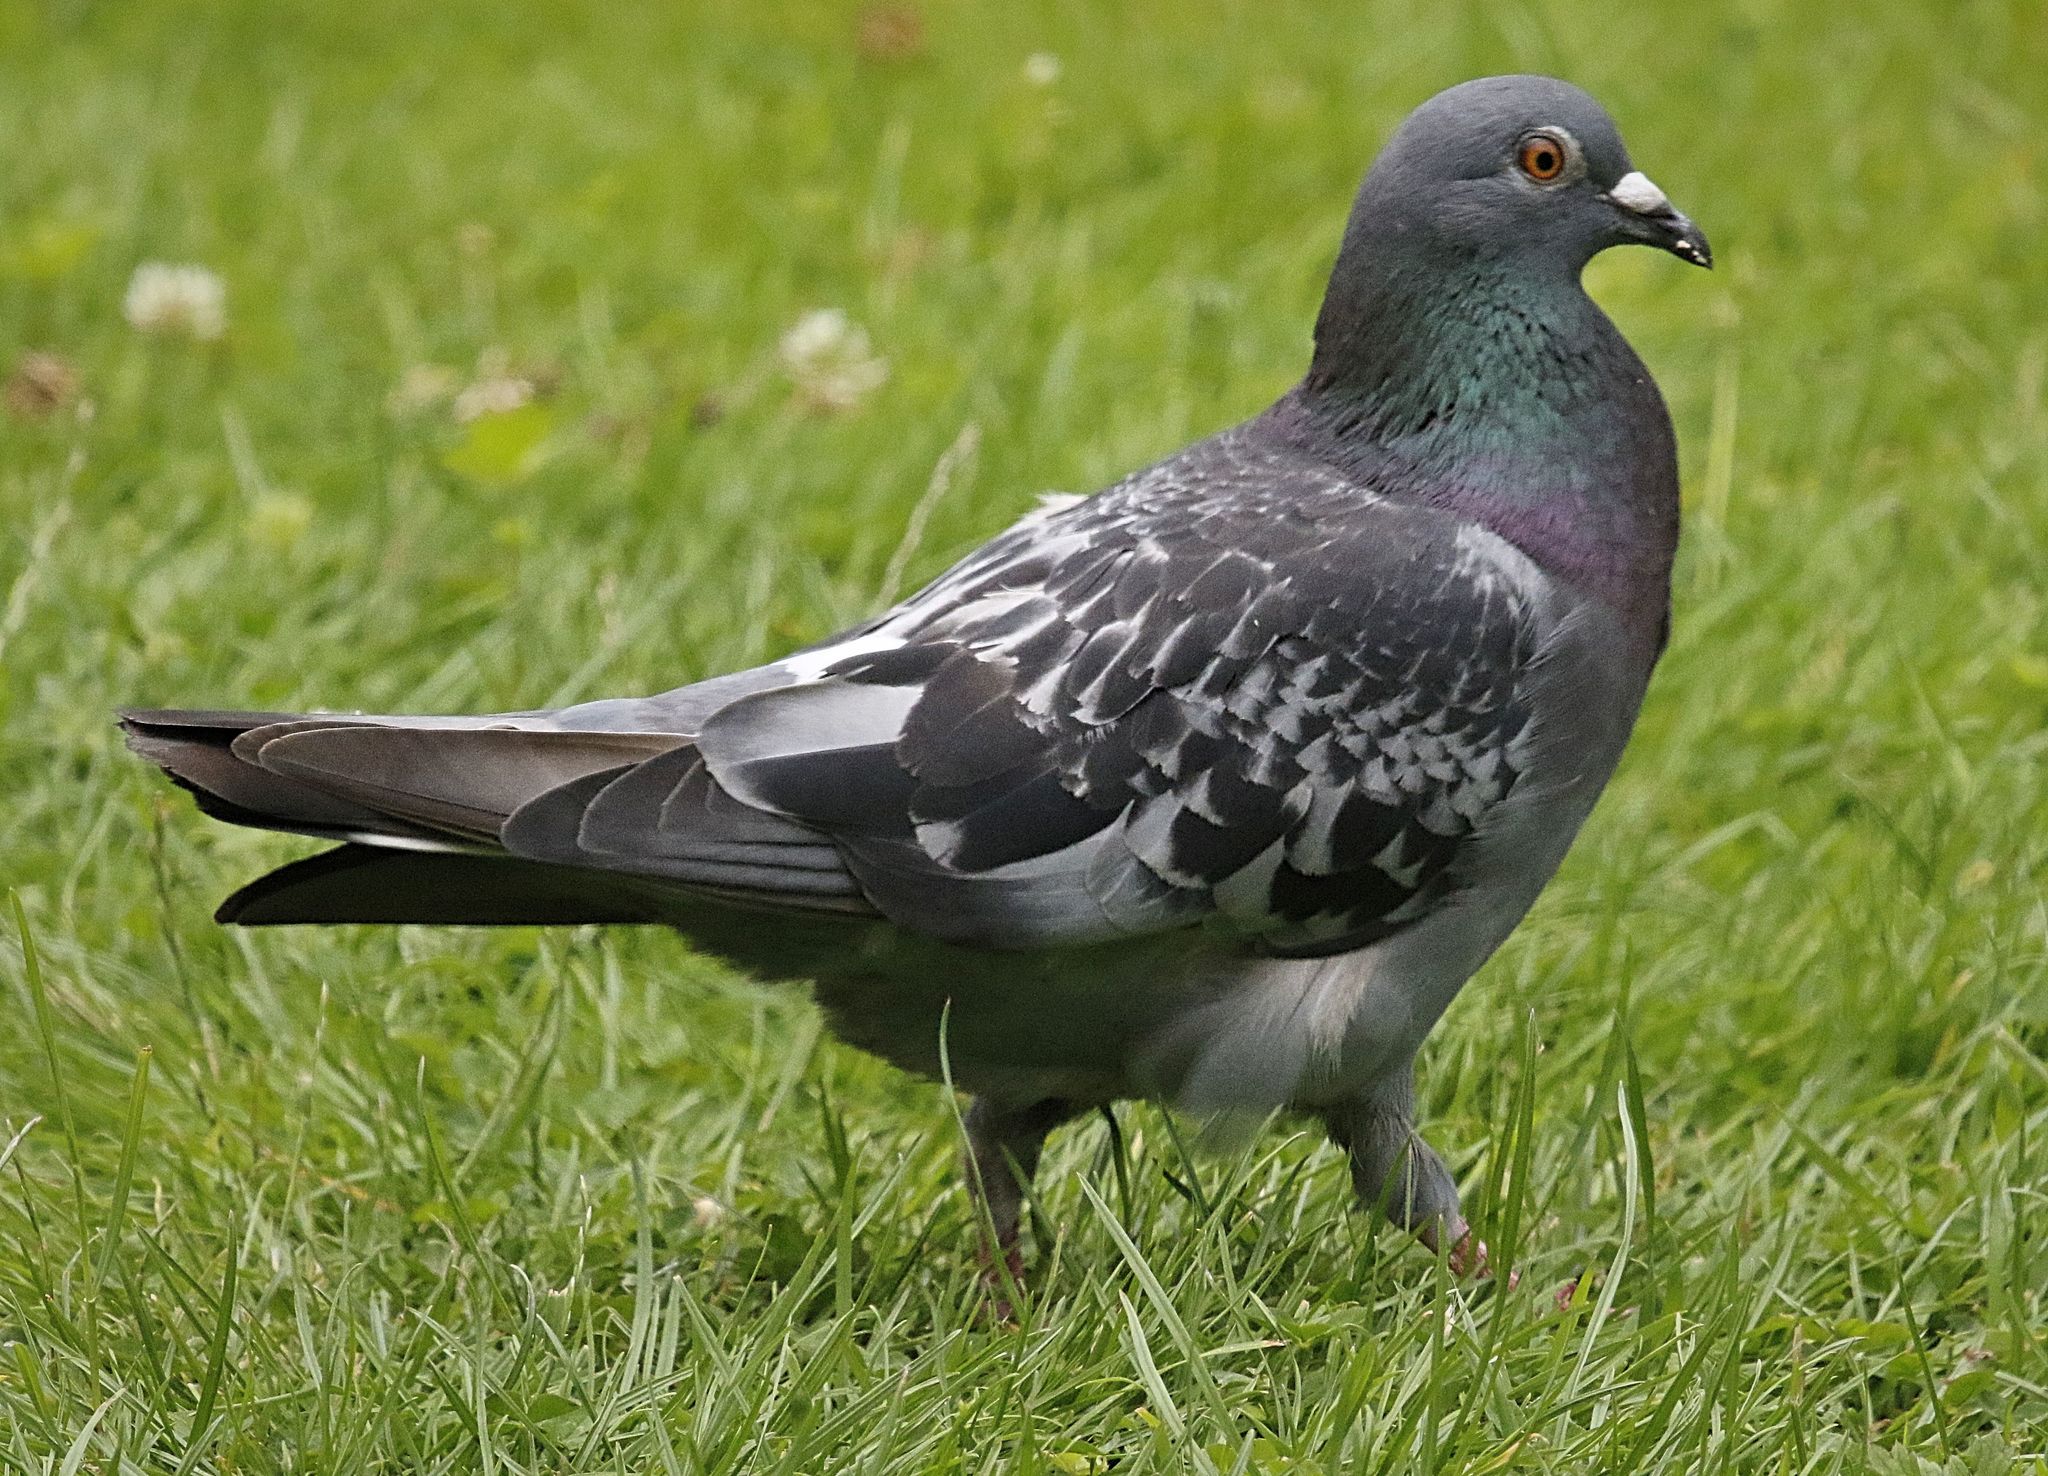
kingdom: Animalia
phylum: Chordata
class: Aves
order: Columbiformes
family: Columbidae
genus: Columba
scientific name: Columba livia
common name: Rock pigeon
